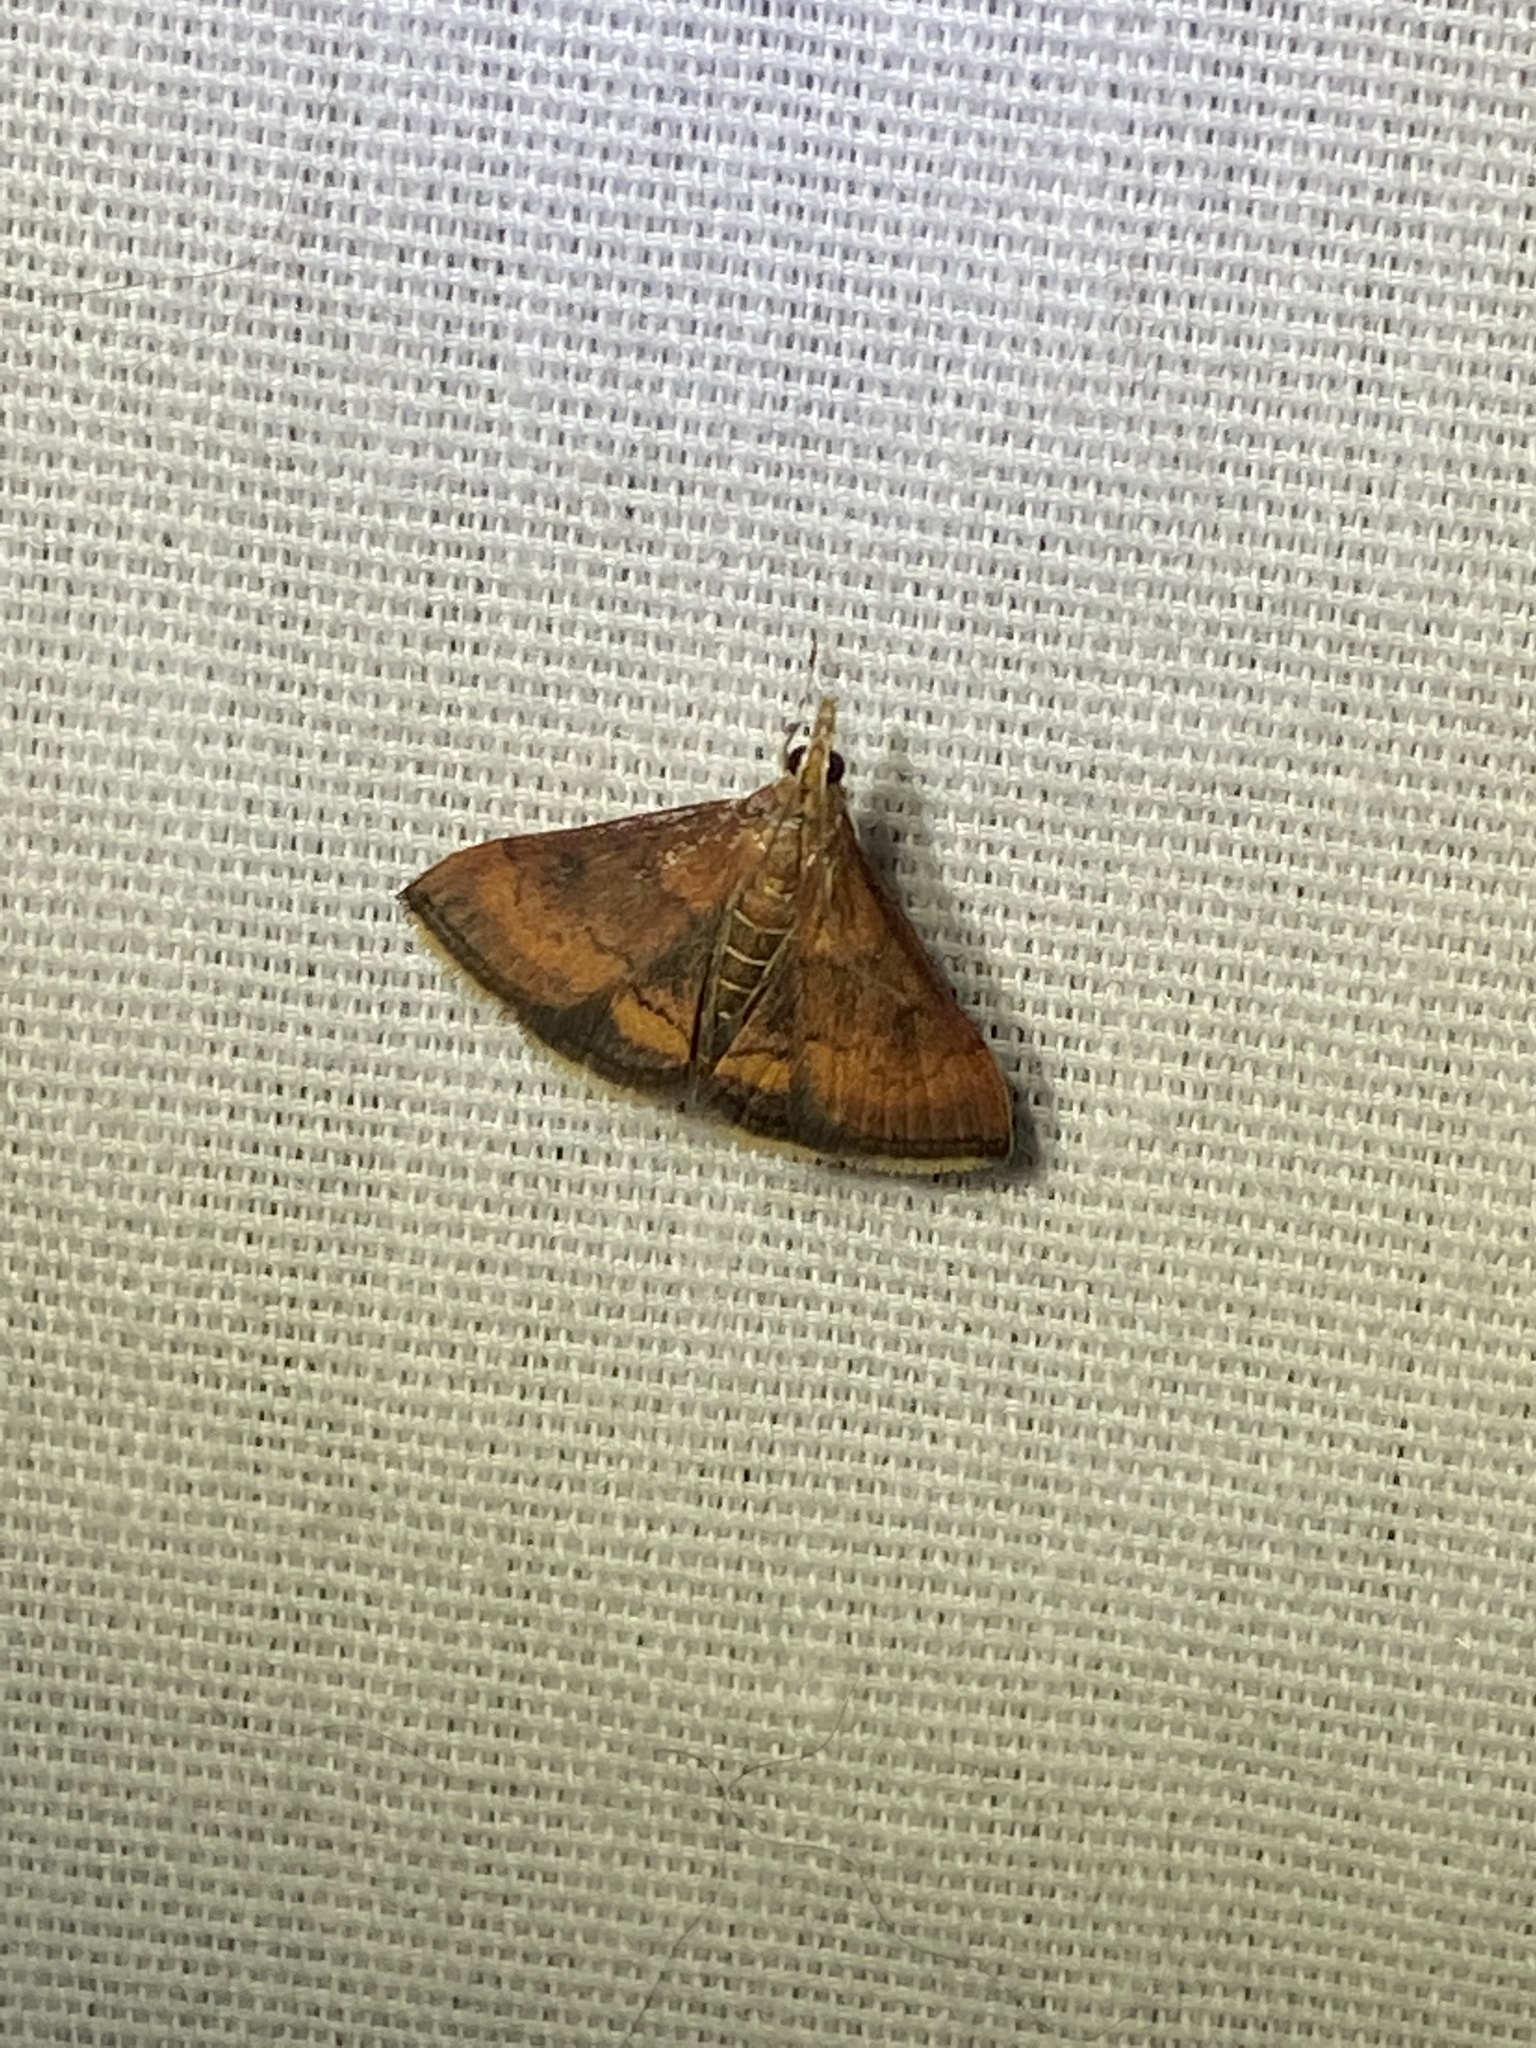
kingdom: Animalia
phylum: Arthropoda
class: Insecta
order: Lepidoptera
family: Crambidae
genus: Pyrausta
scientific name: Pyrausta rubricalis
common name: Variable reddish pyrausta
